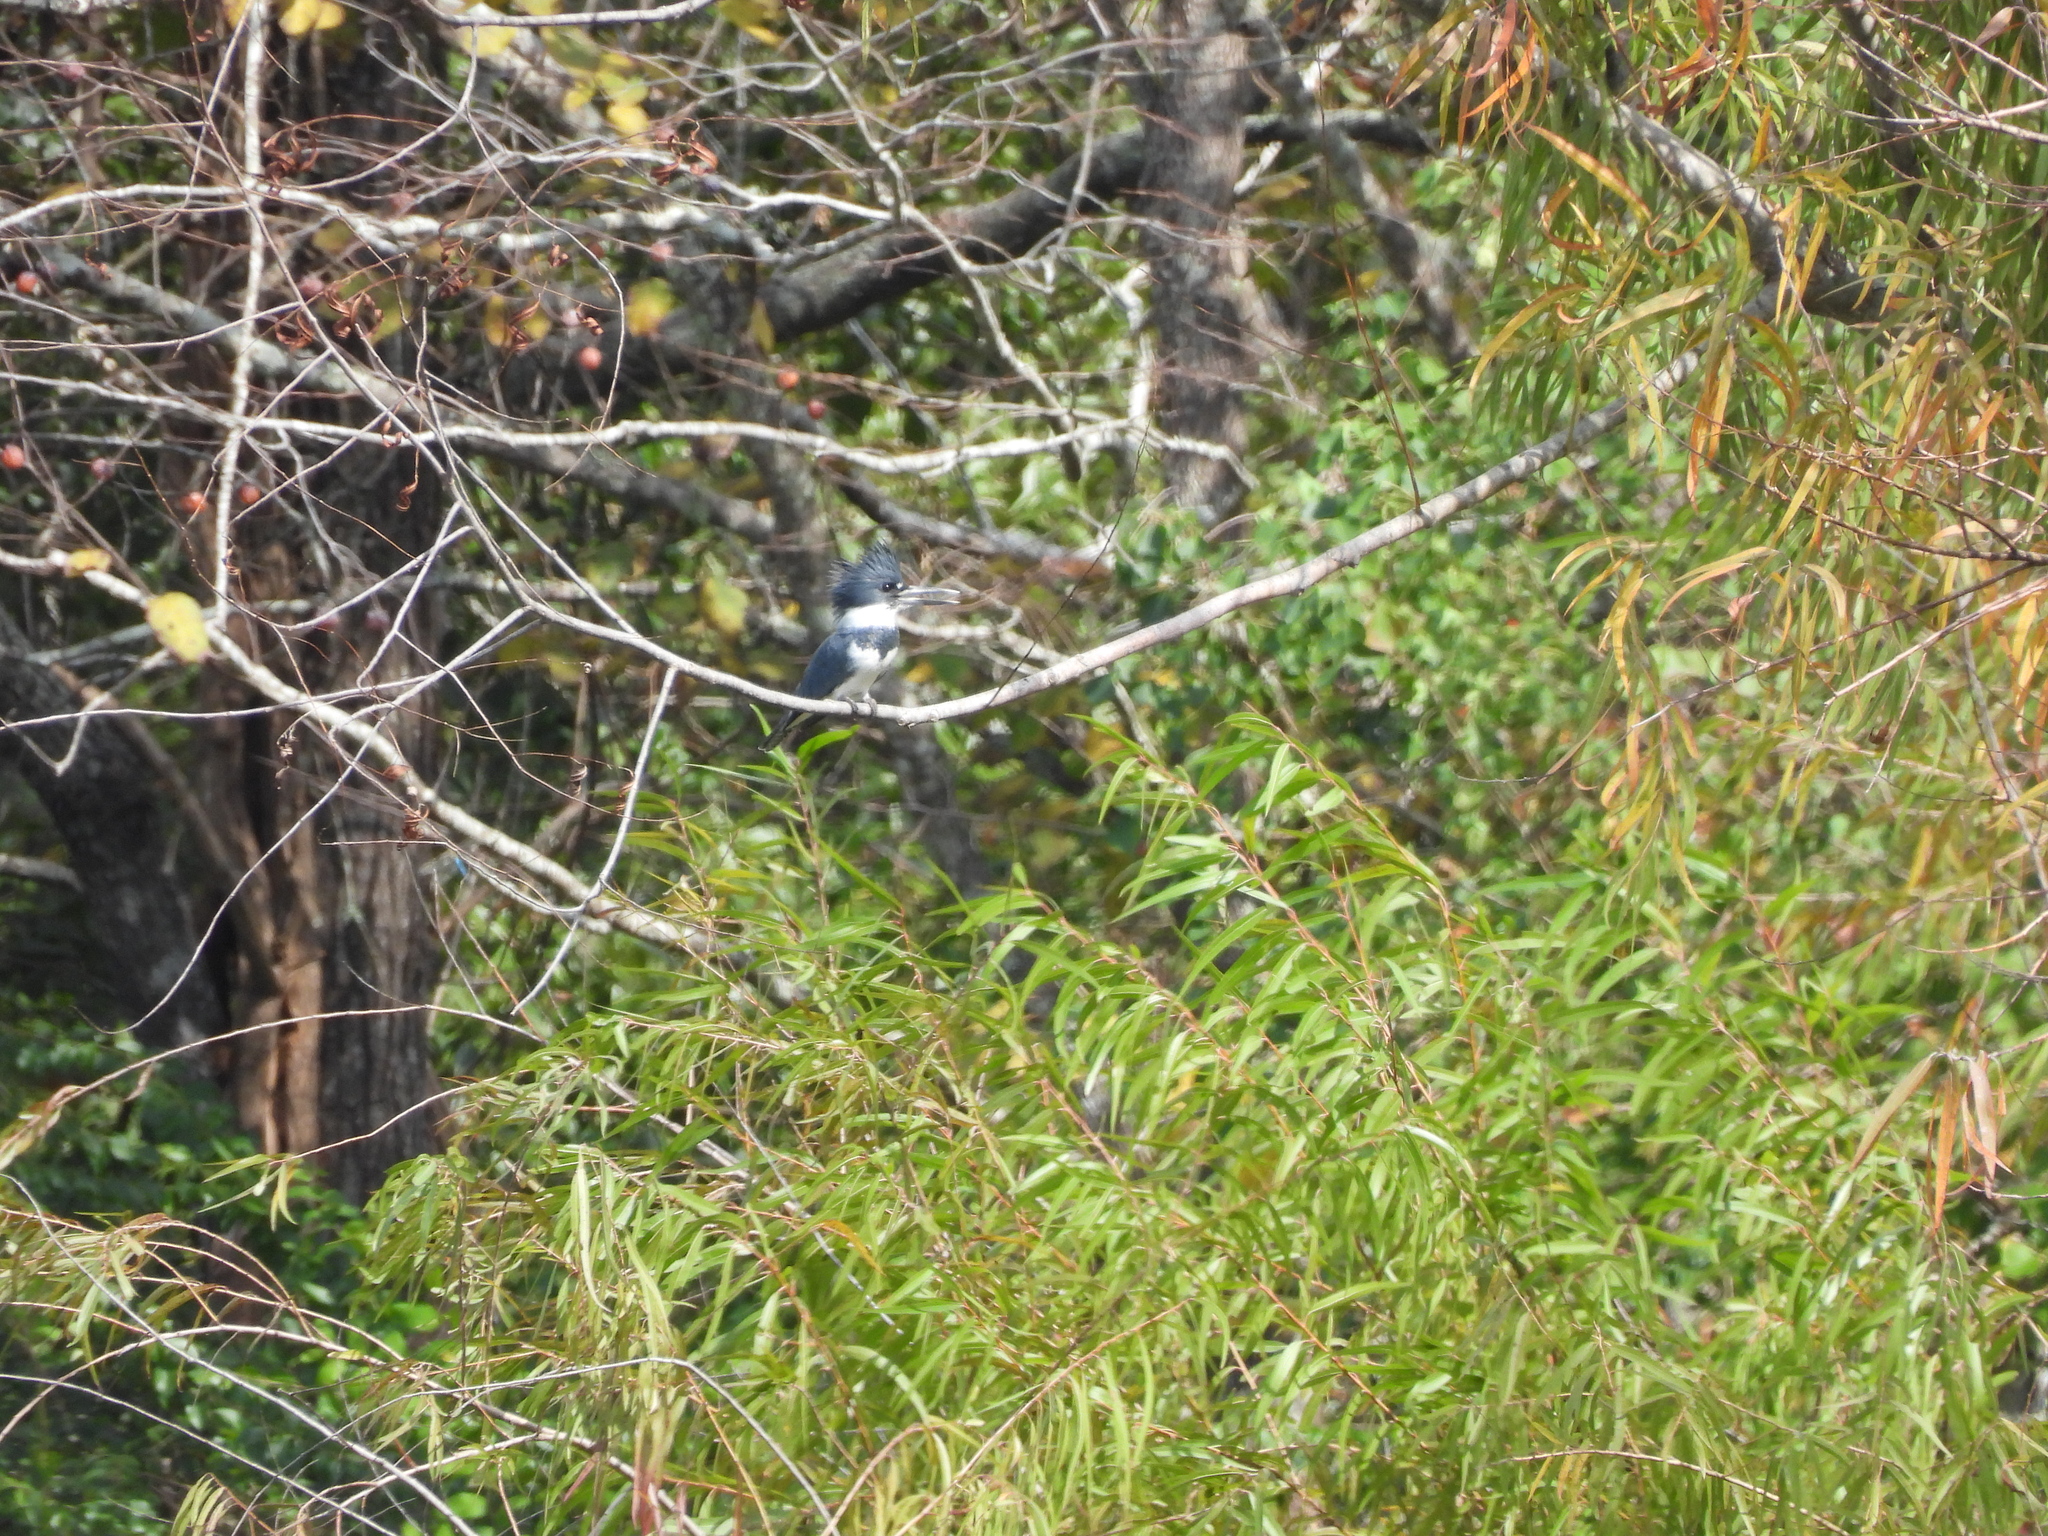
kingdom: Animalia
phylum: Chordata
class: Aves
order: Coraciiformes
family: Alcedinidae
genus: Megaceryle
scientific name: Megaceryle alcyon
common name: Belted kingfisher
